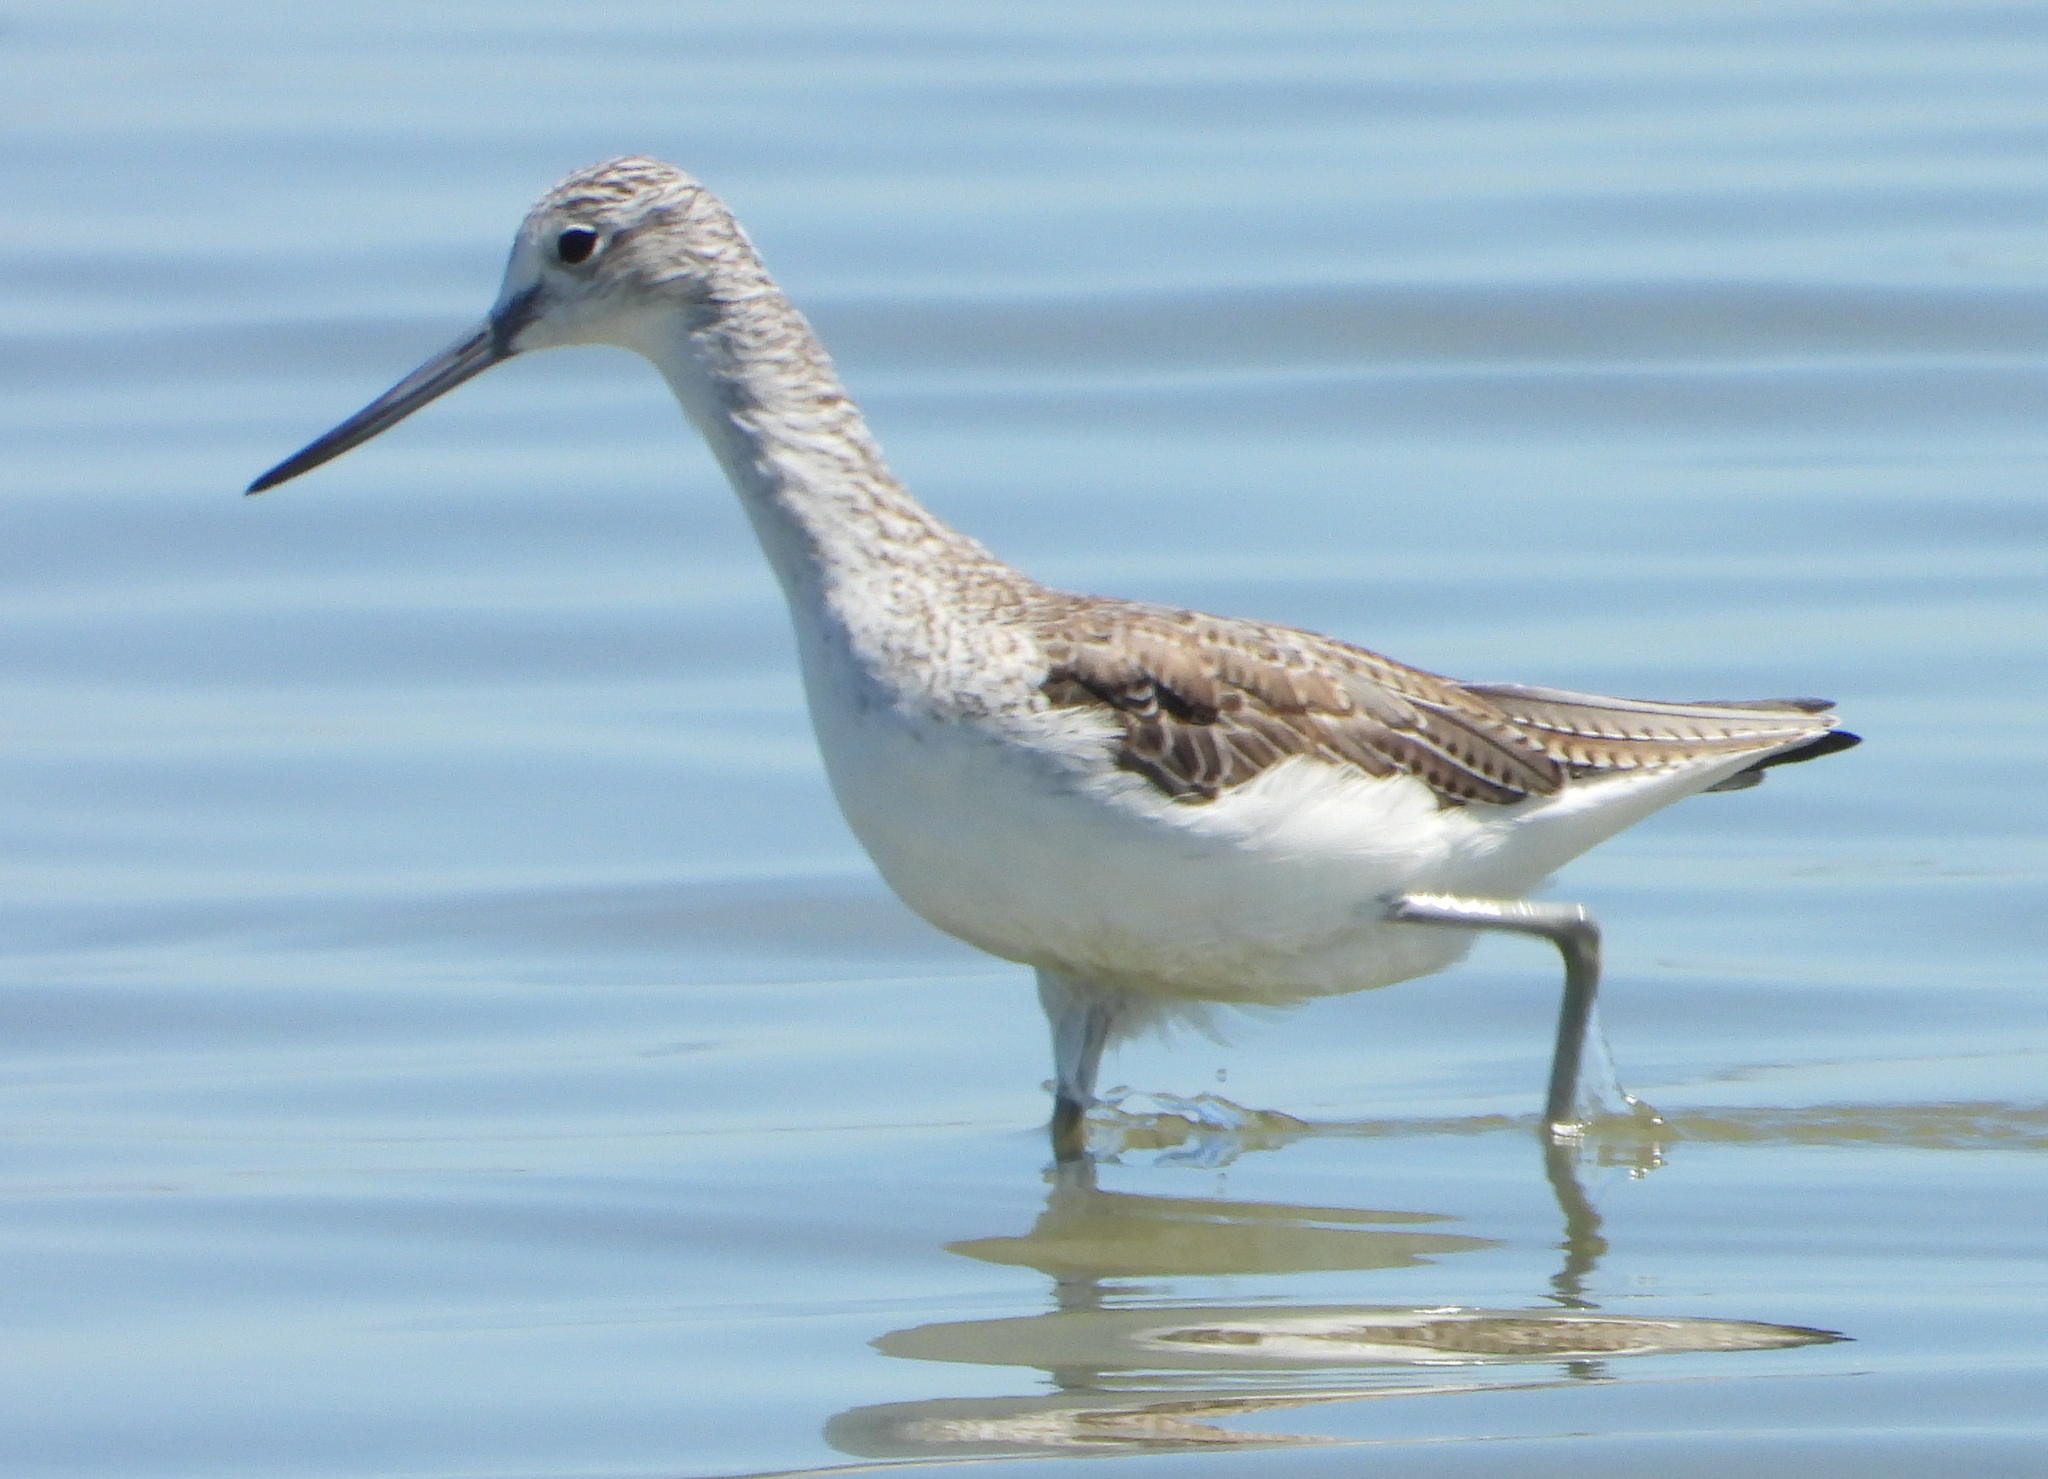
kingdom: Animalia
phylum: Chordata
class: Aves
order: Charadriiformes
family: Scolopacidae
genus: Tringa
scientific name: Tringa nebularia
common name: Common greenshank
